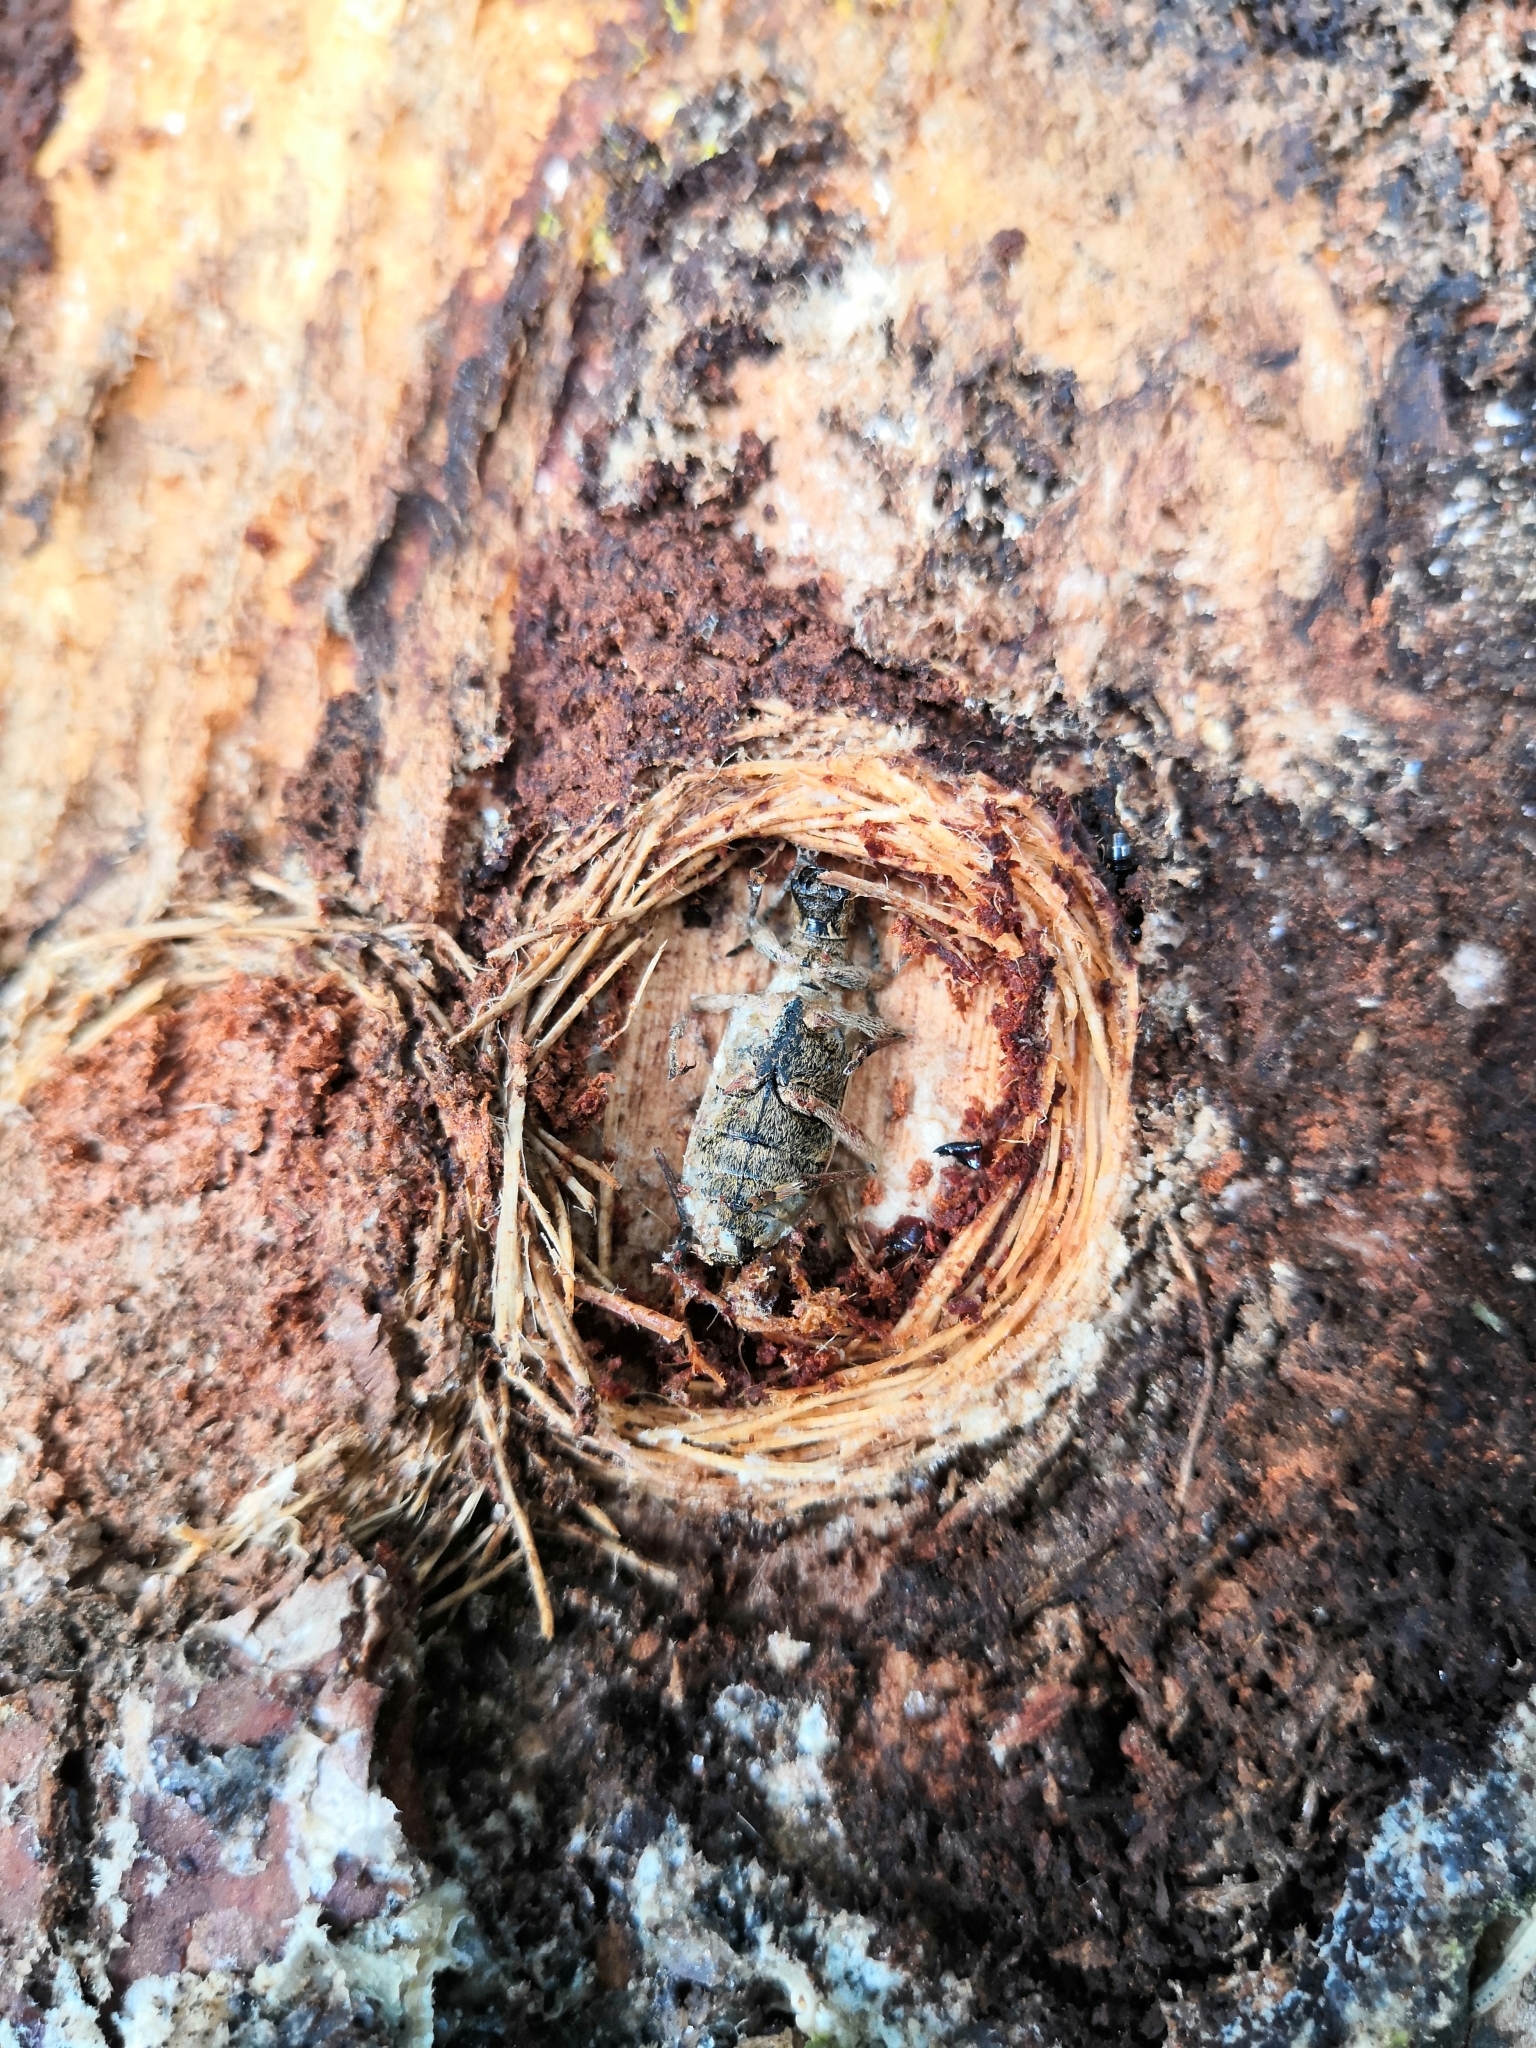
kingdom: Animalia
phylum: Arthropoda
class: Insecta
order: Coleoptera
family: Cerambycidae
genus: Rhagium
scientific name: Rhagium inquisitor
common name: Ribbed pine borer
